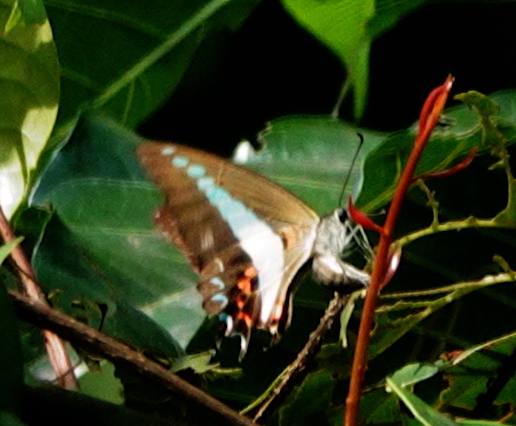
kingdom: Animalia
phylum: Arthropoda
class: Insecta
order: Lepidoptera
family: Papilionidae
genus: Graphium
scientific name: Graphium antheus
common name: Large striped swordtail
